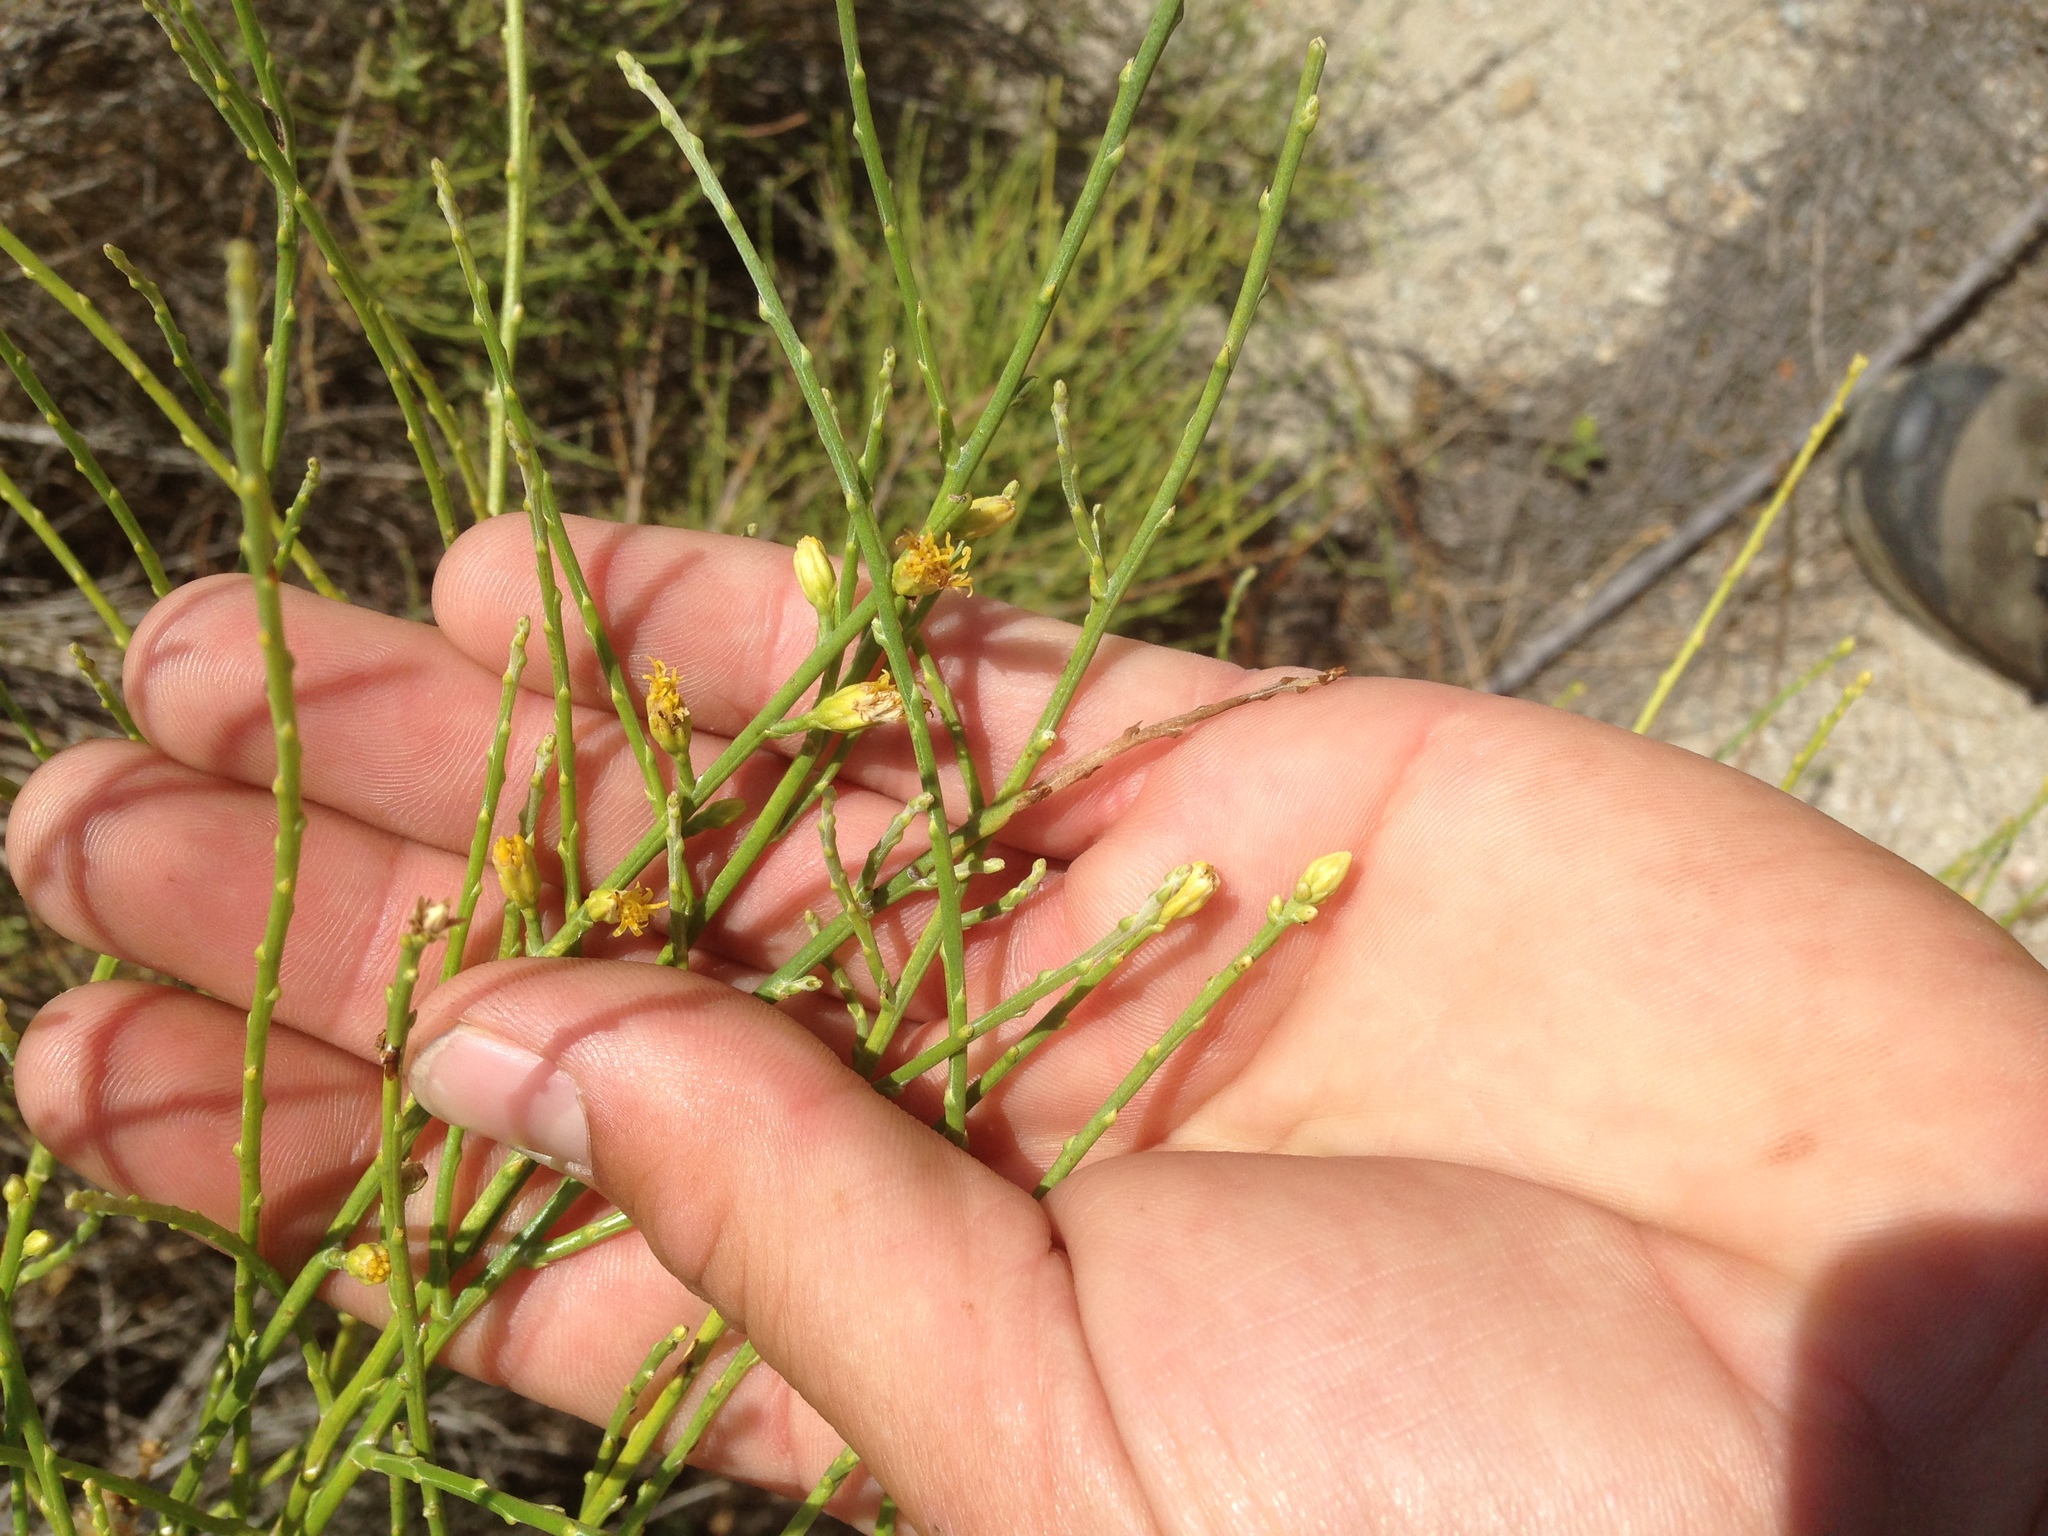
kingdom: Plantae
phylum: Tracheophyta
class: Magnoliopsida
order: Asterales
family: Asteraceae
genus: Lepidospartum
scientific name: Lepidospartum squamatum
